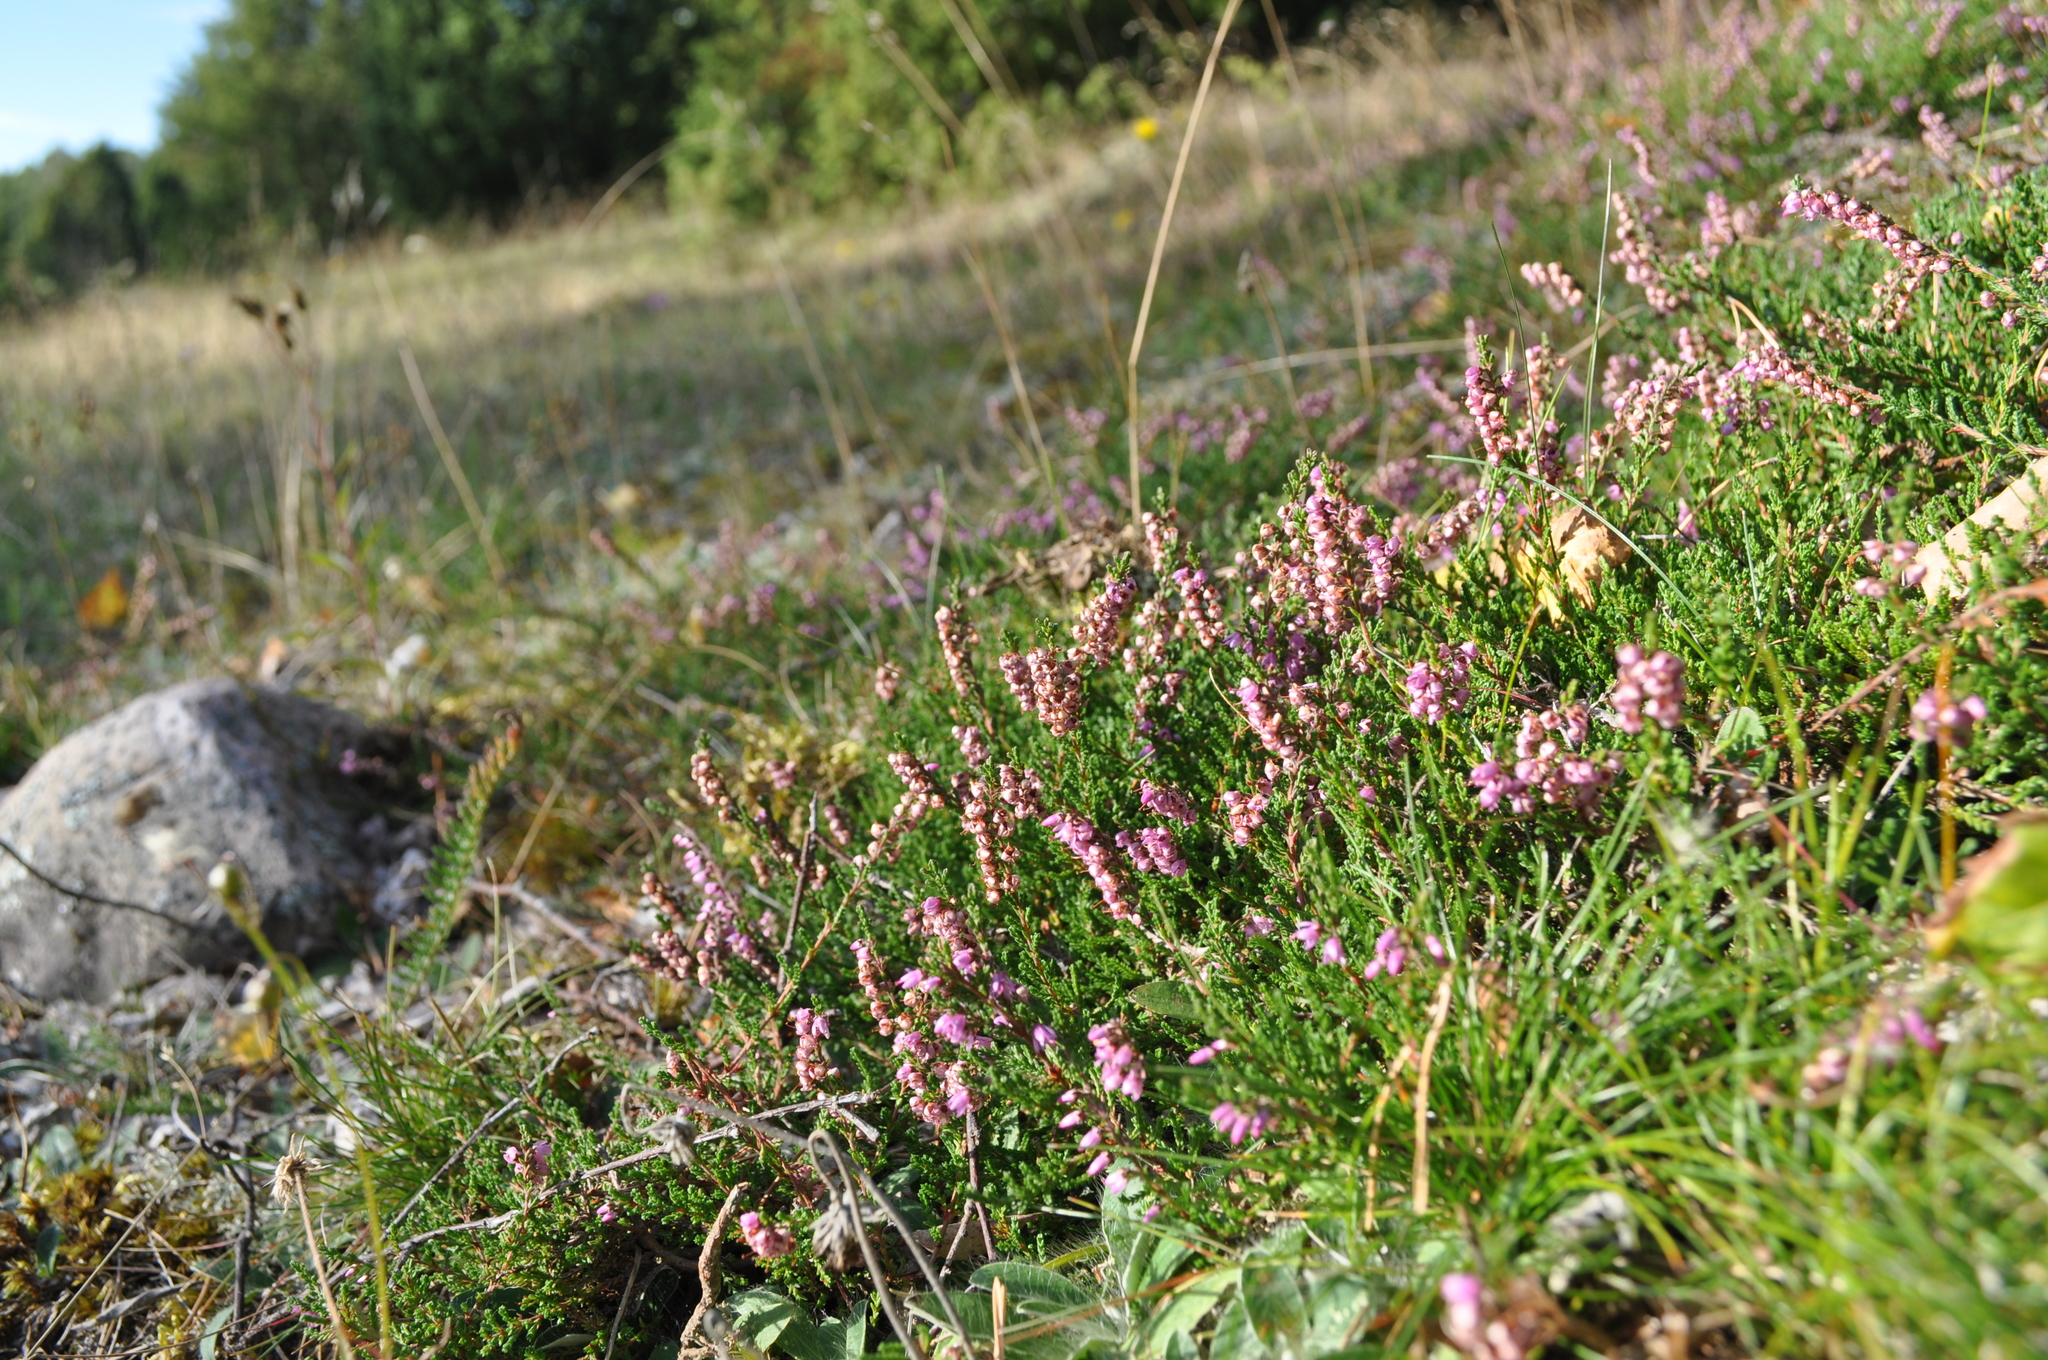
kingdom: Plantae
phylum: Tracheophyta
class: Magnoliopsida
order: Ericales
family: Ericaceae
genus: Calluna
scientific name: Calluna vulgaris
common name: Heather
